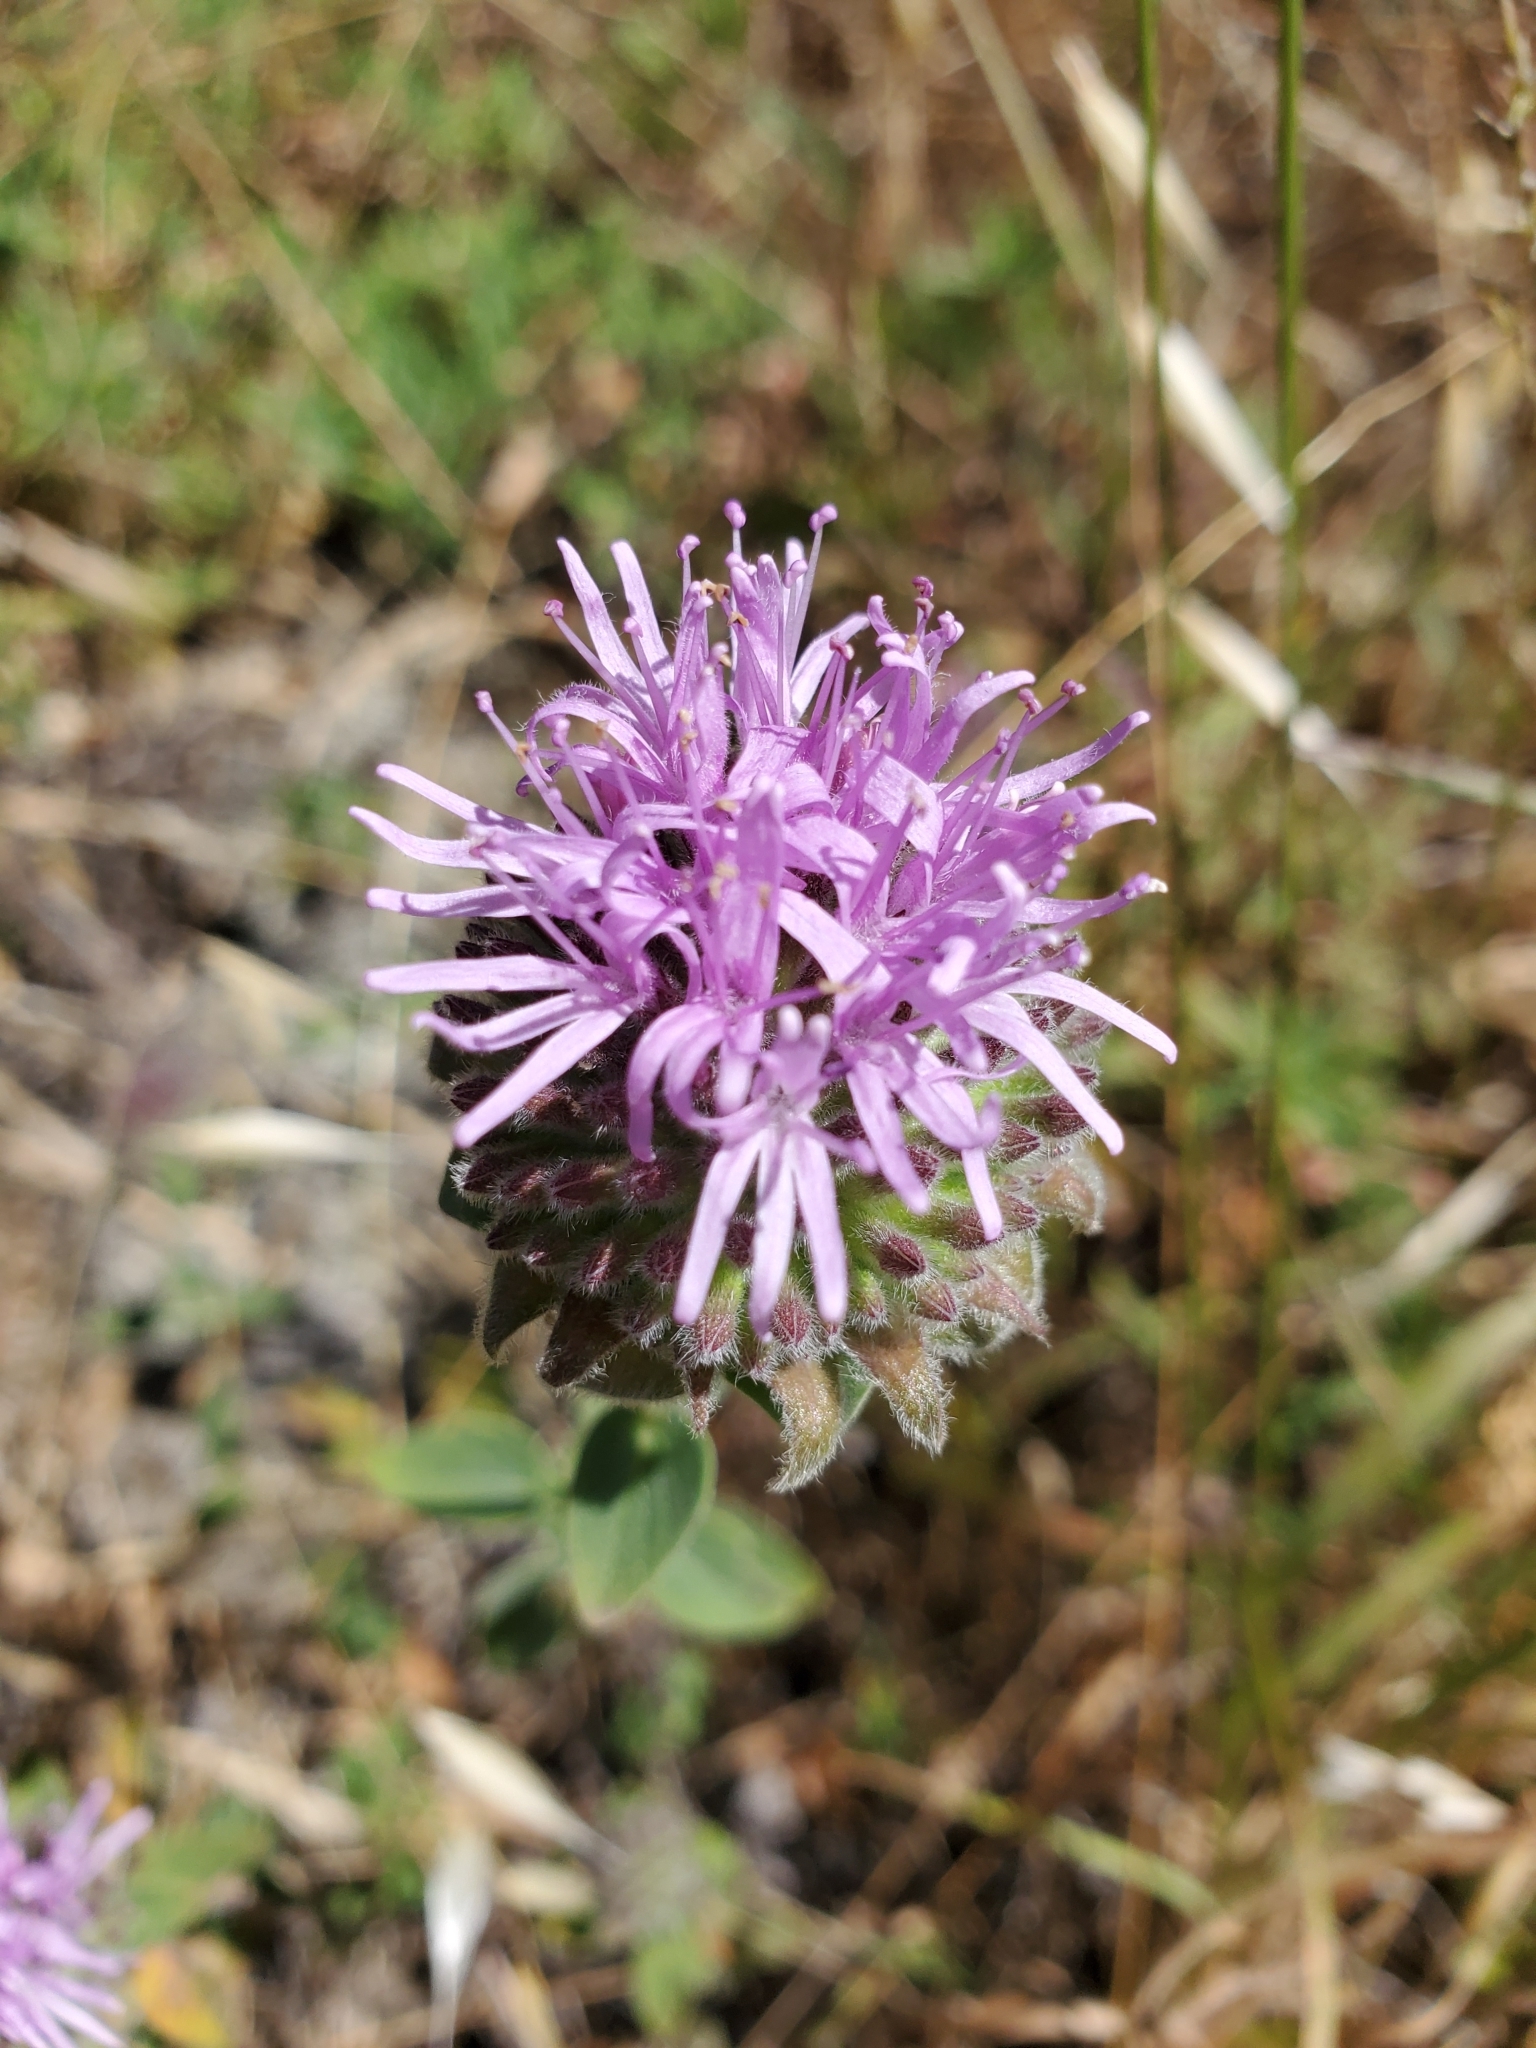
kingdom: Plantae
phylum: Tracheophyta
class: Magnoliopsida
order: Lamiales
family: Lamiaceae
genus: Monardella
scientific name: Monardella odoratissima
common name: Pacific monardella
